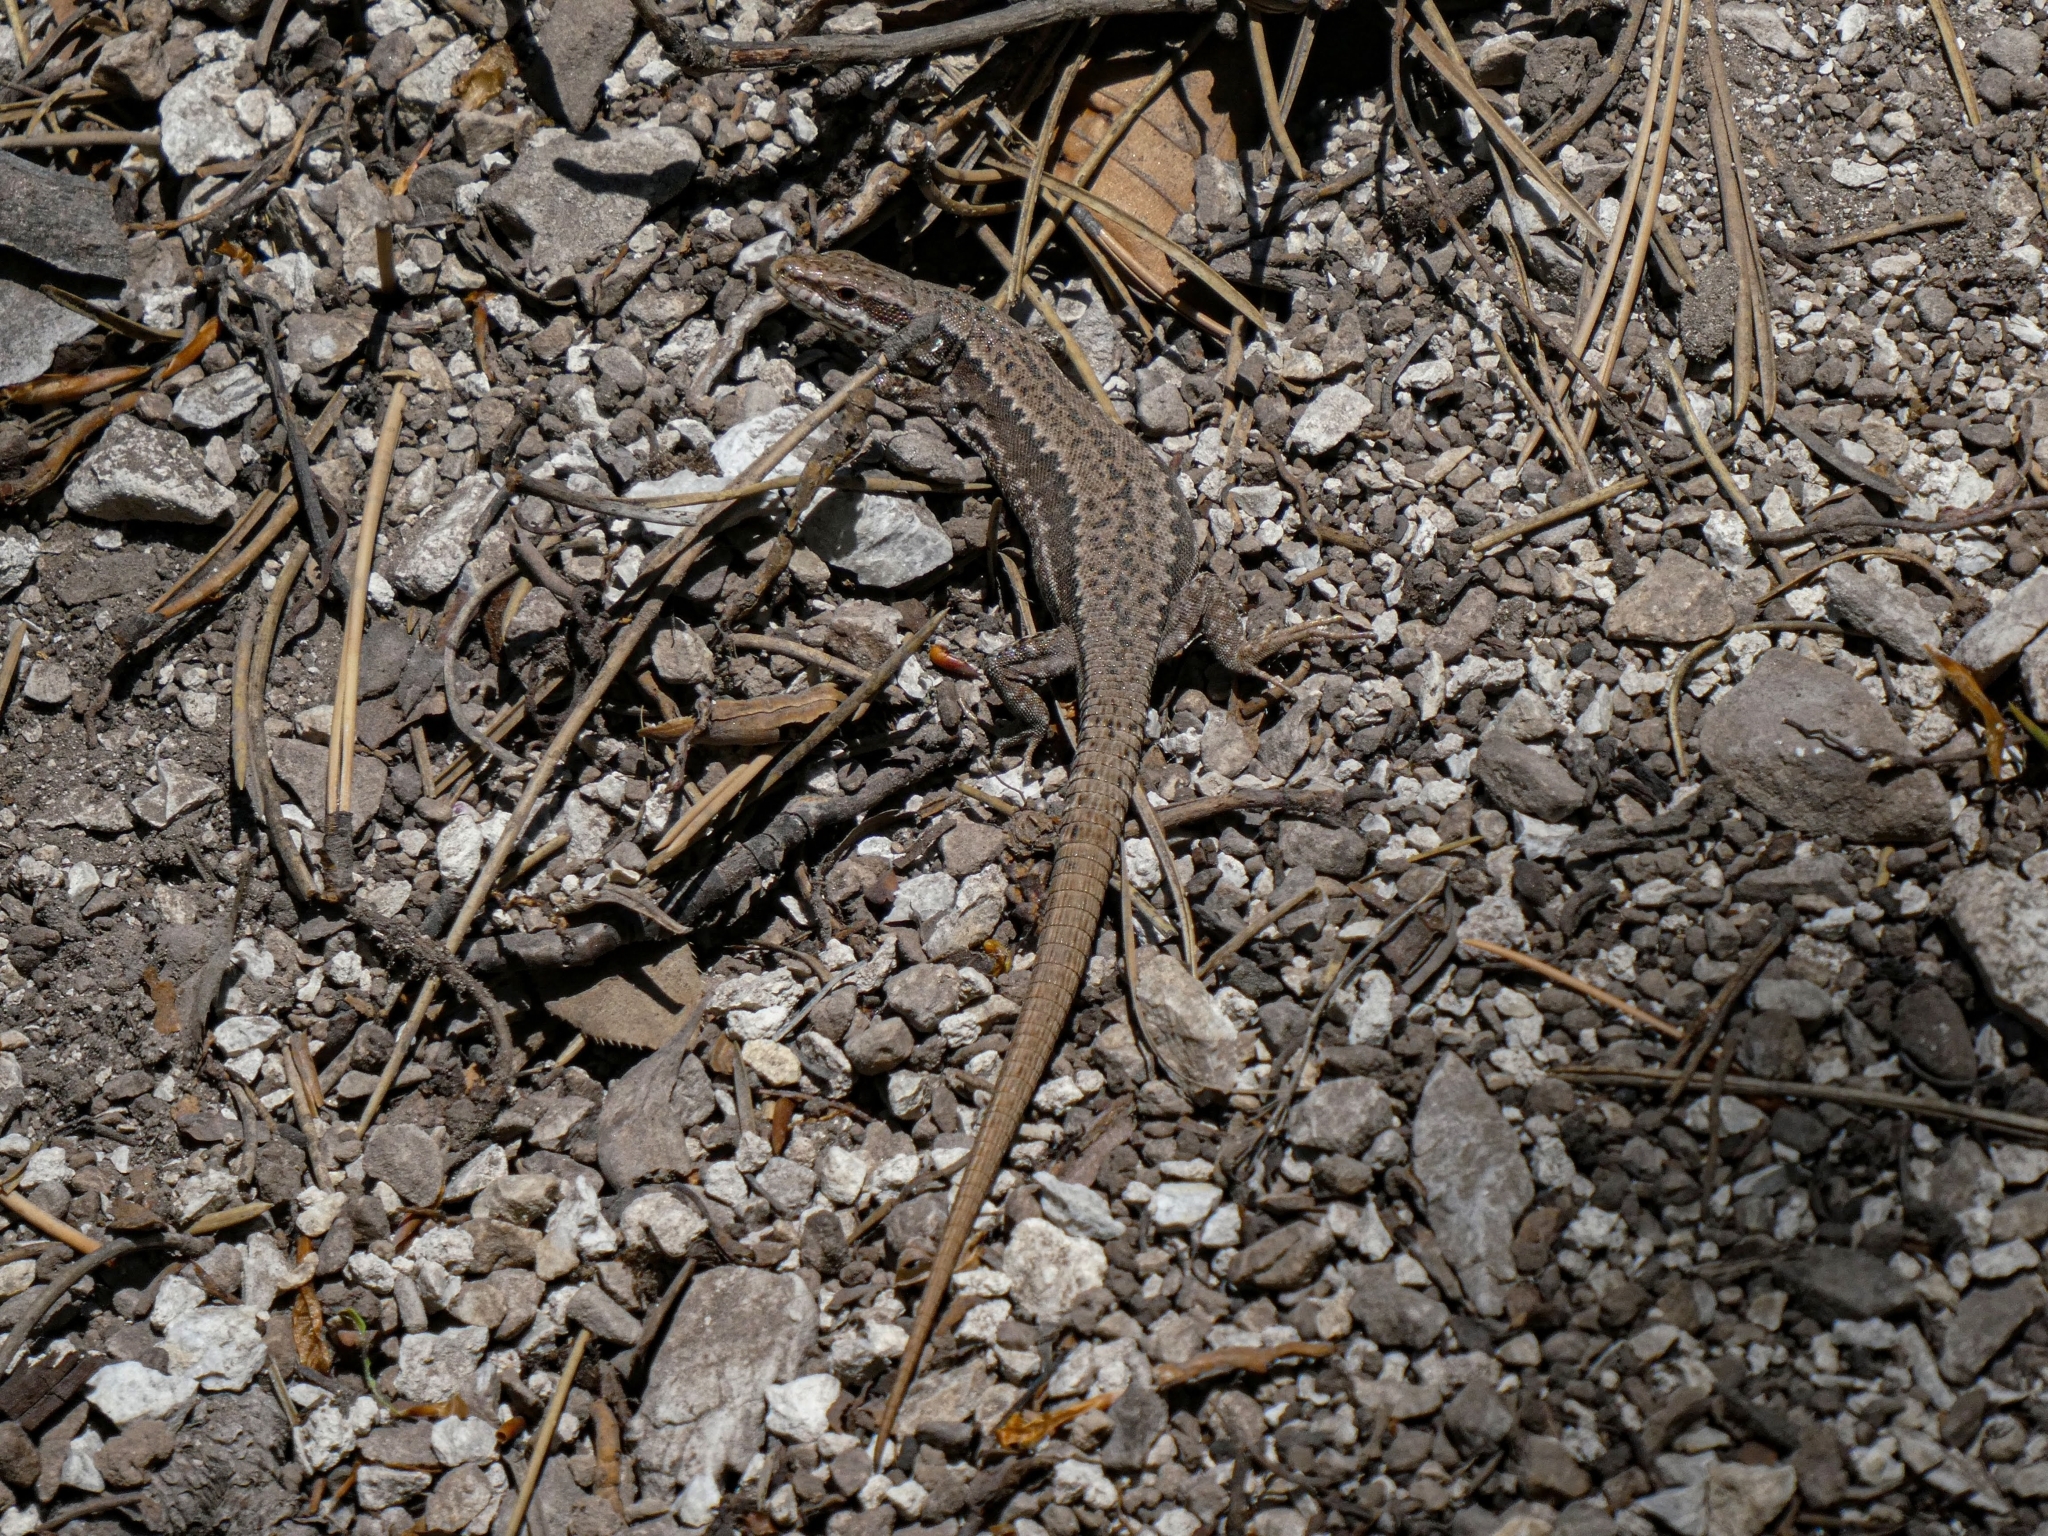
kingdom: Animalia
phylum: Chordata
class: Squamata
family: Lacertidae
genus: Podarcis
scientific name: Podarcis muralis
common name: Common wall lizard
